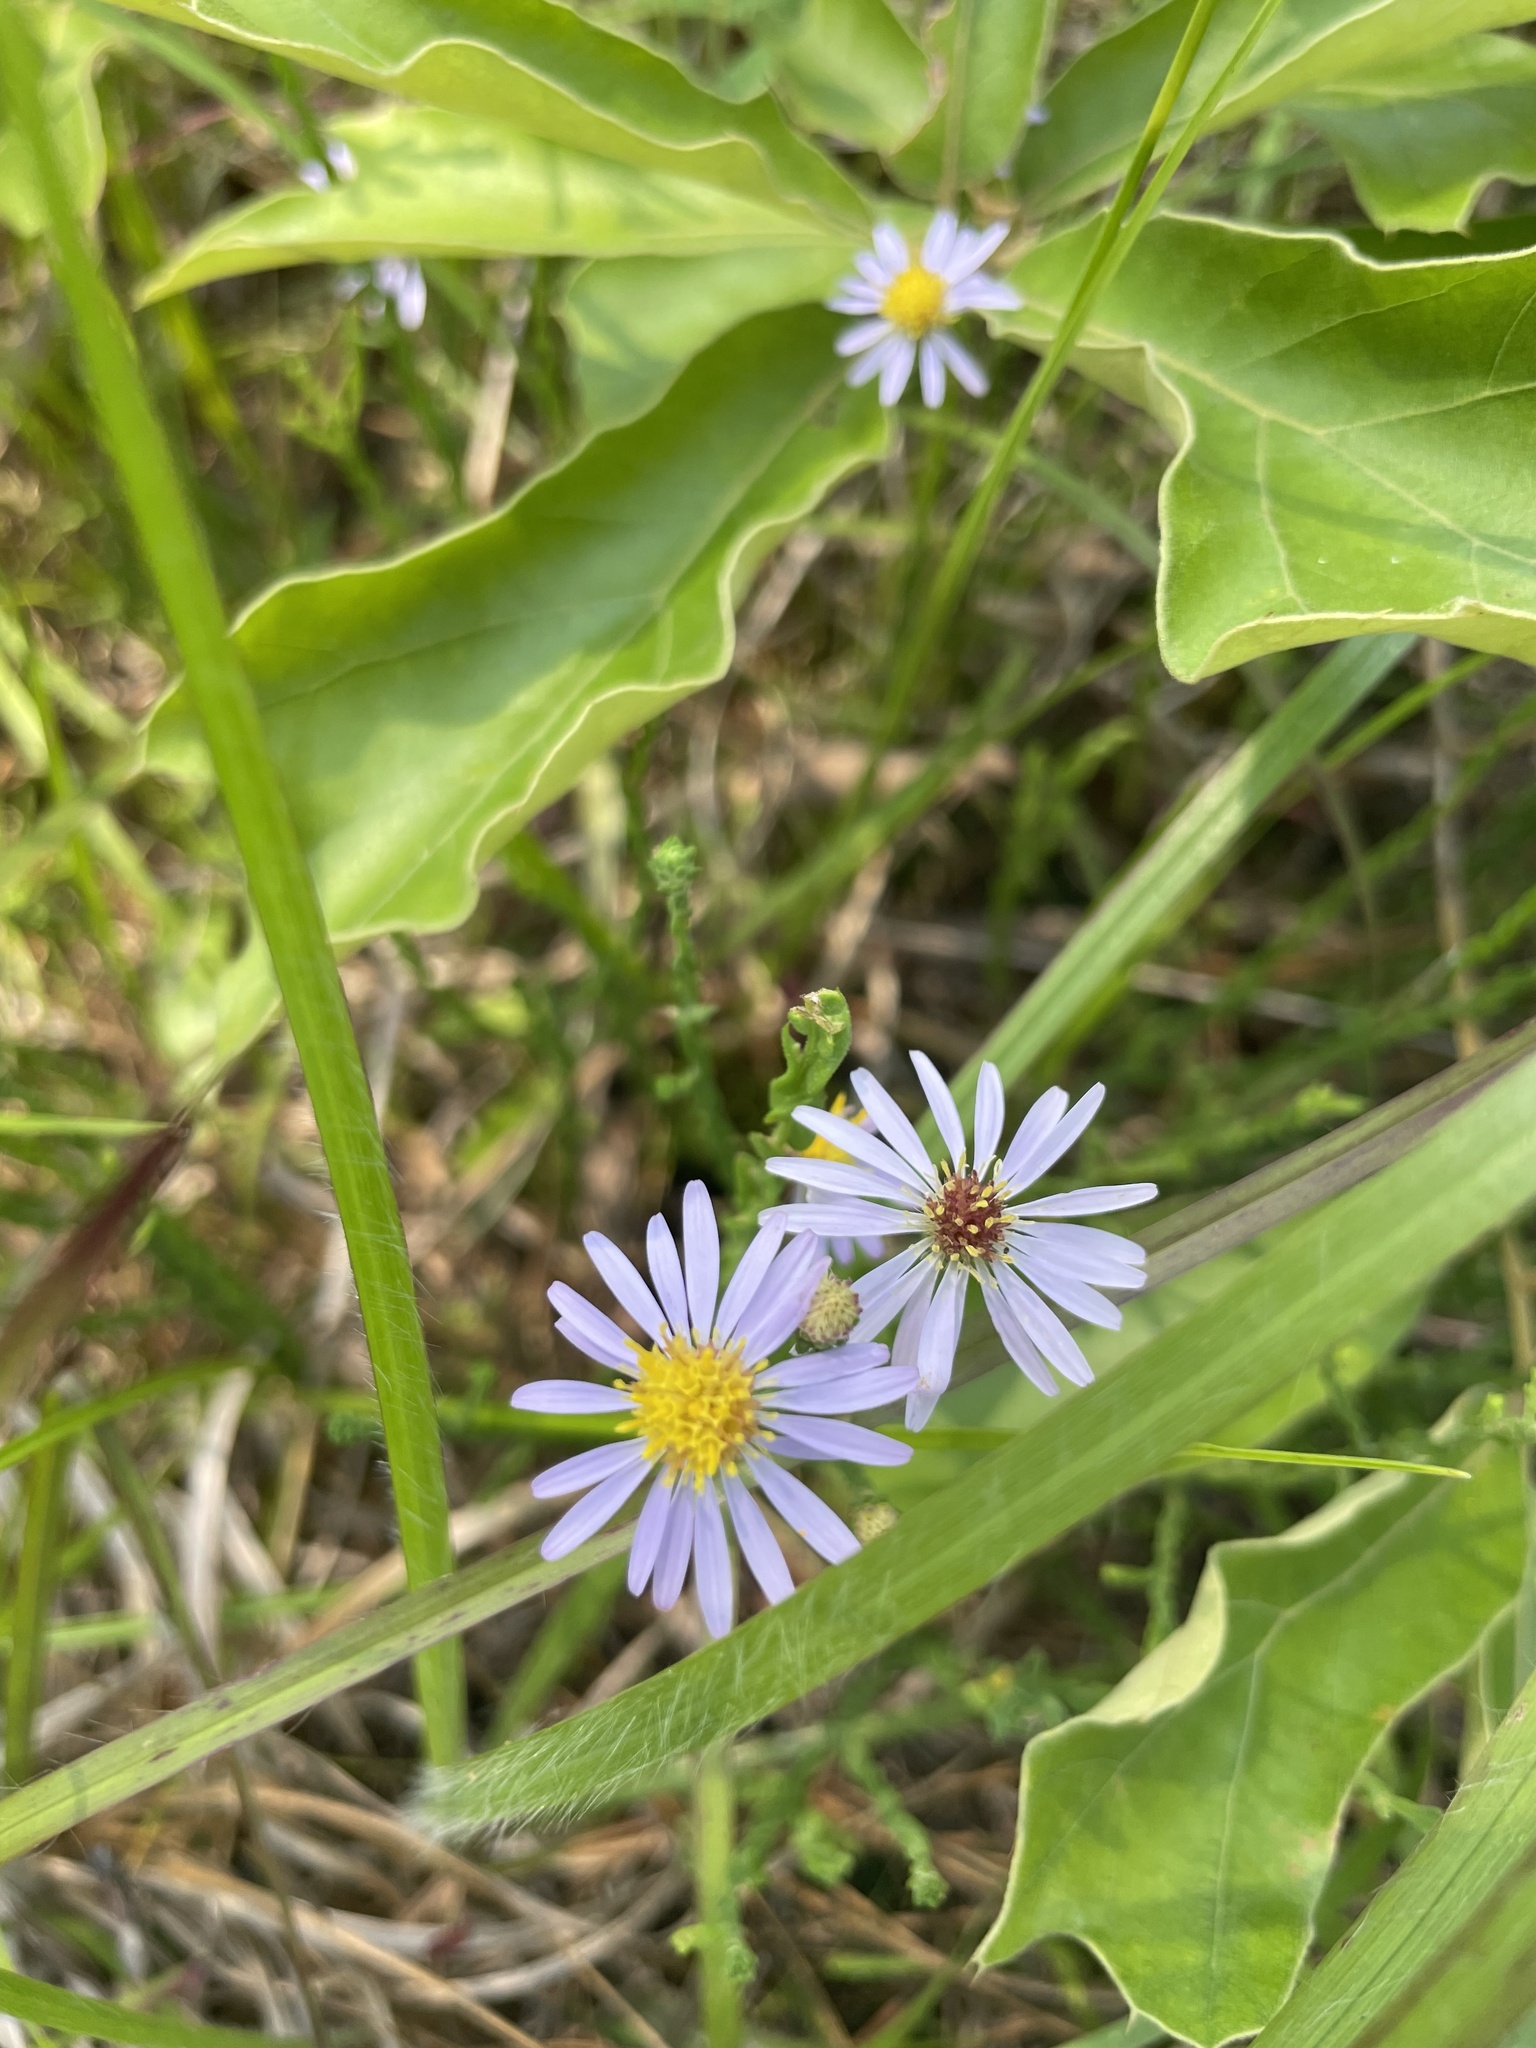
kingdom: Plantae
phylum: Tracheophyta
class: Magnoliopsida
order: Asterales
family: Asteraceae
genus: Symphyotrichum
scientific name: Symphyotrichum adnatum
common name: Scale-leaf aster
